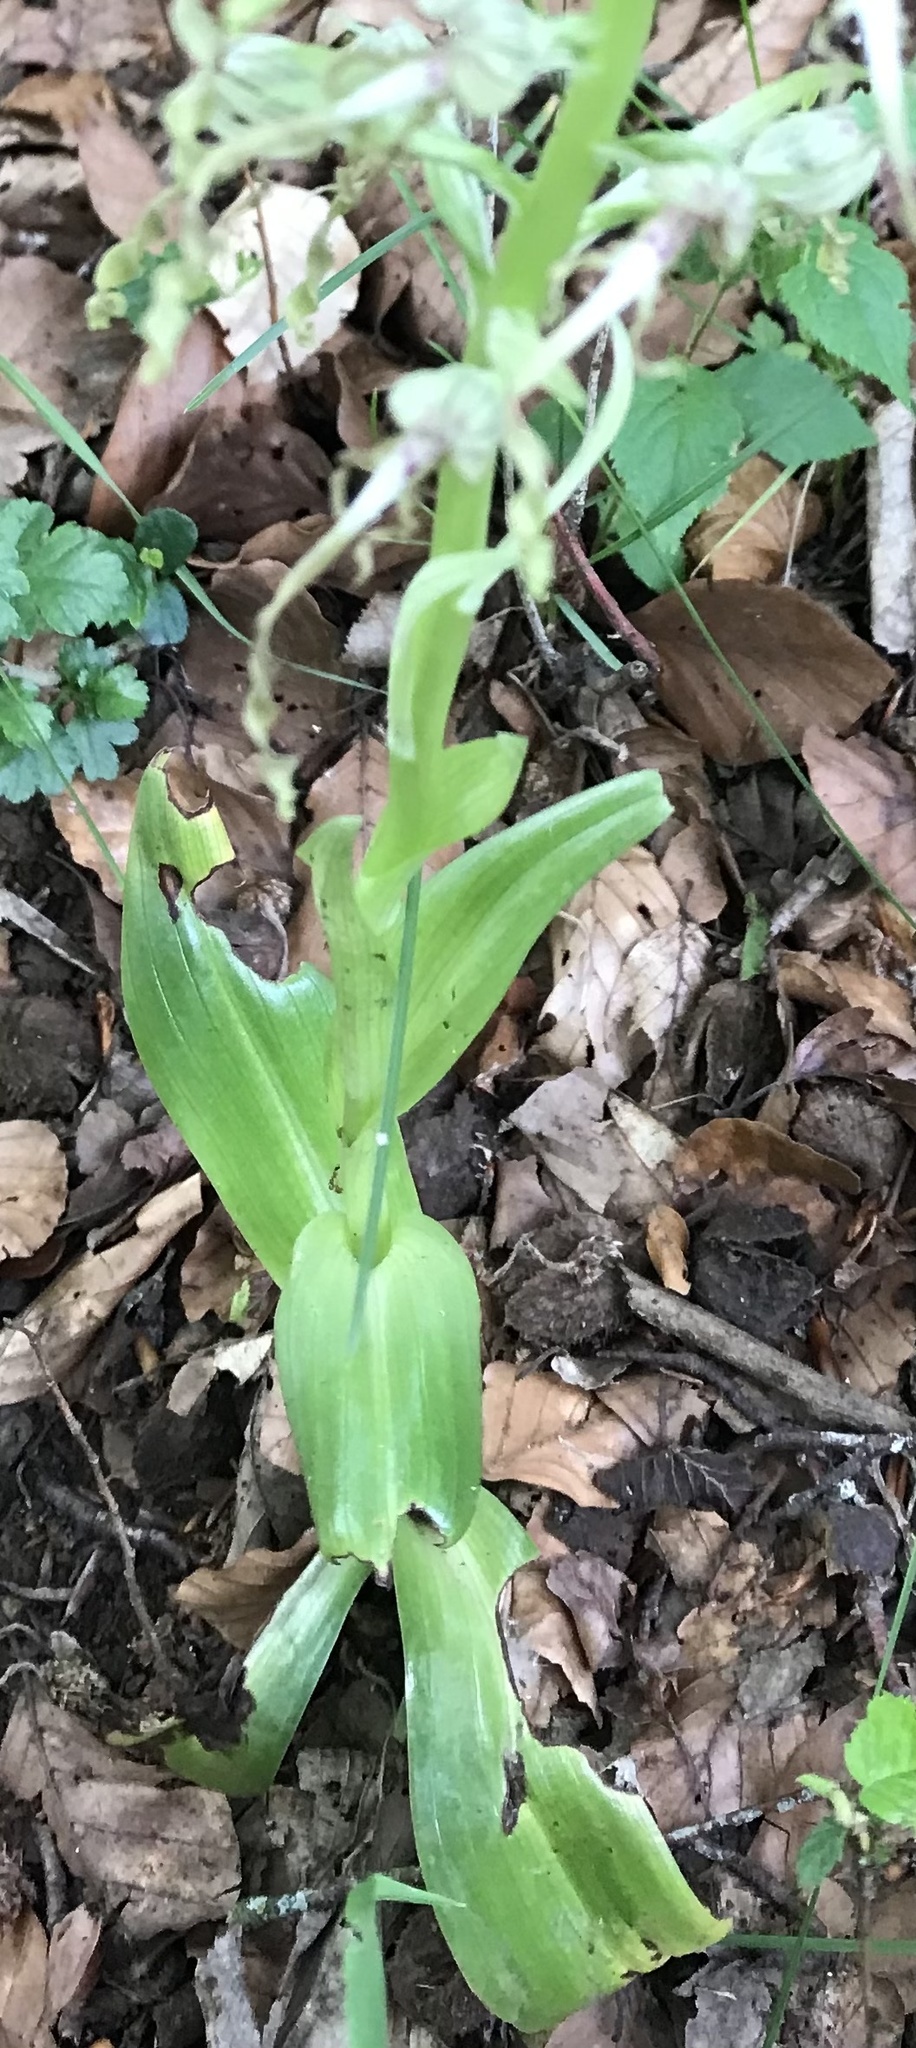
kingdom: Plantae
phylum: Tracheophyta
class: Liliopsida
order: Asparagales
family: Orchidaceae
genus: Himantoglossum
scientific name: Himantoglossum hircinum
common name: Lizard orchid
